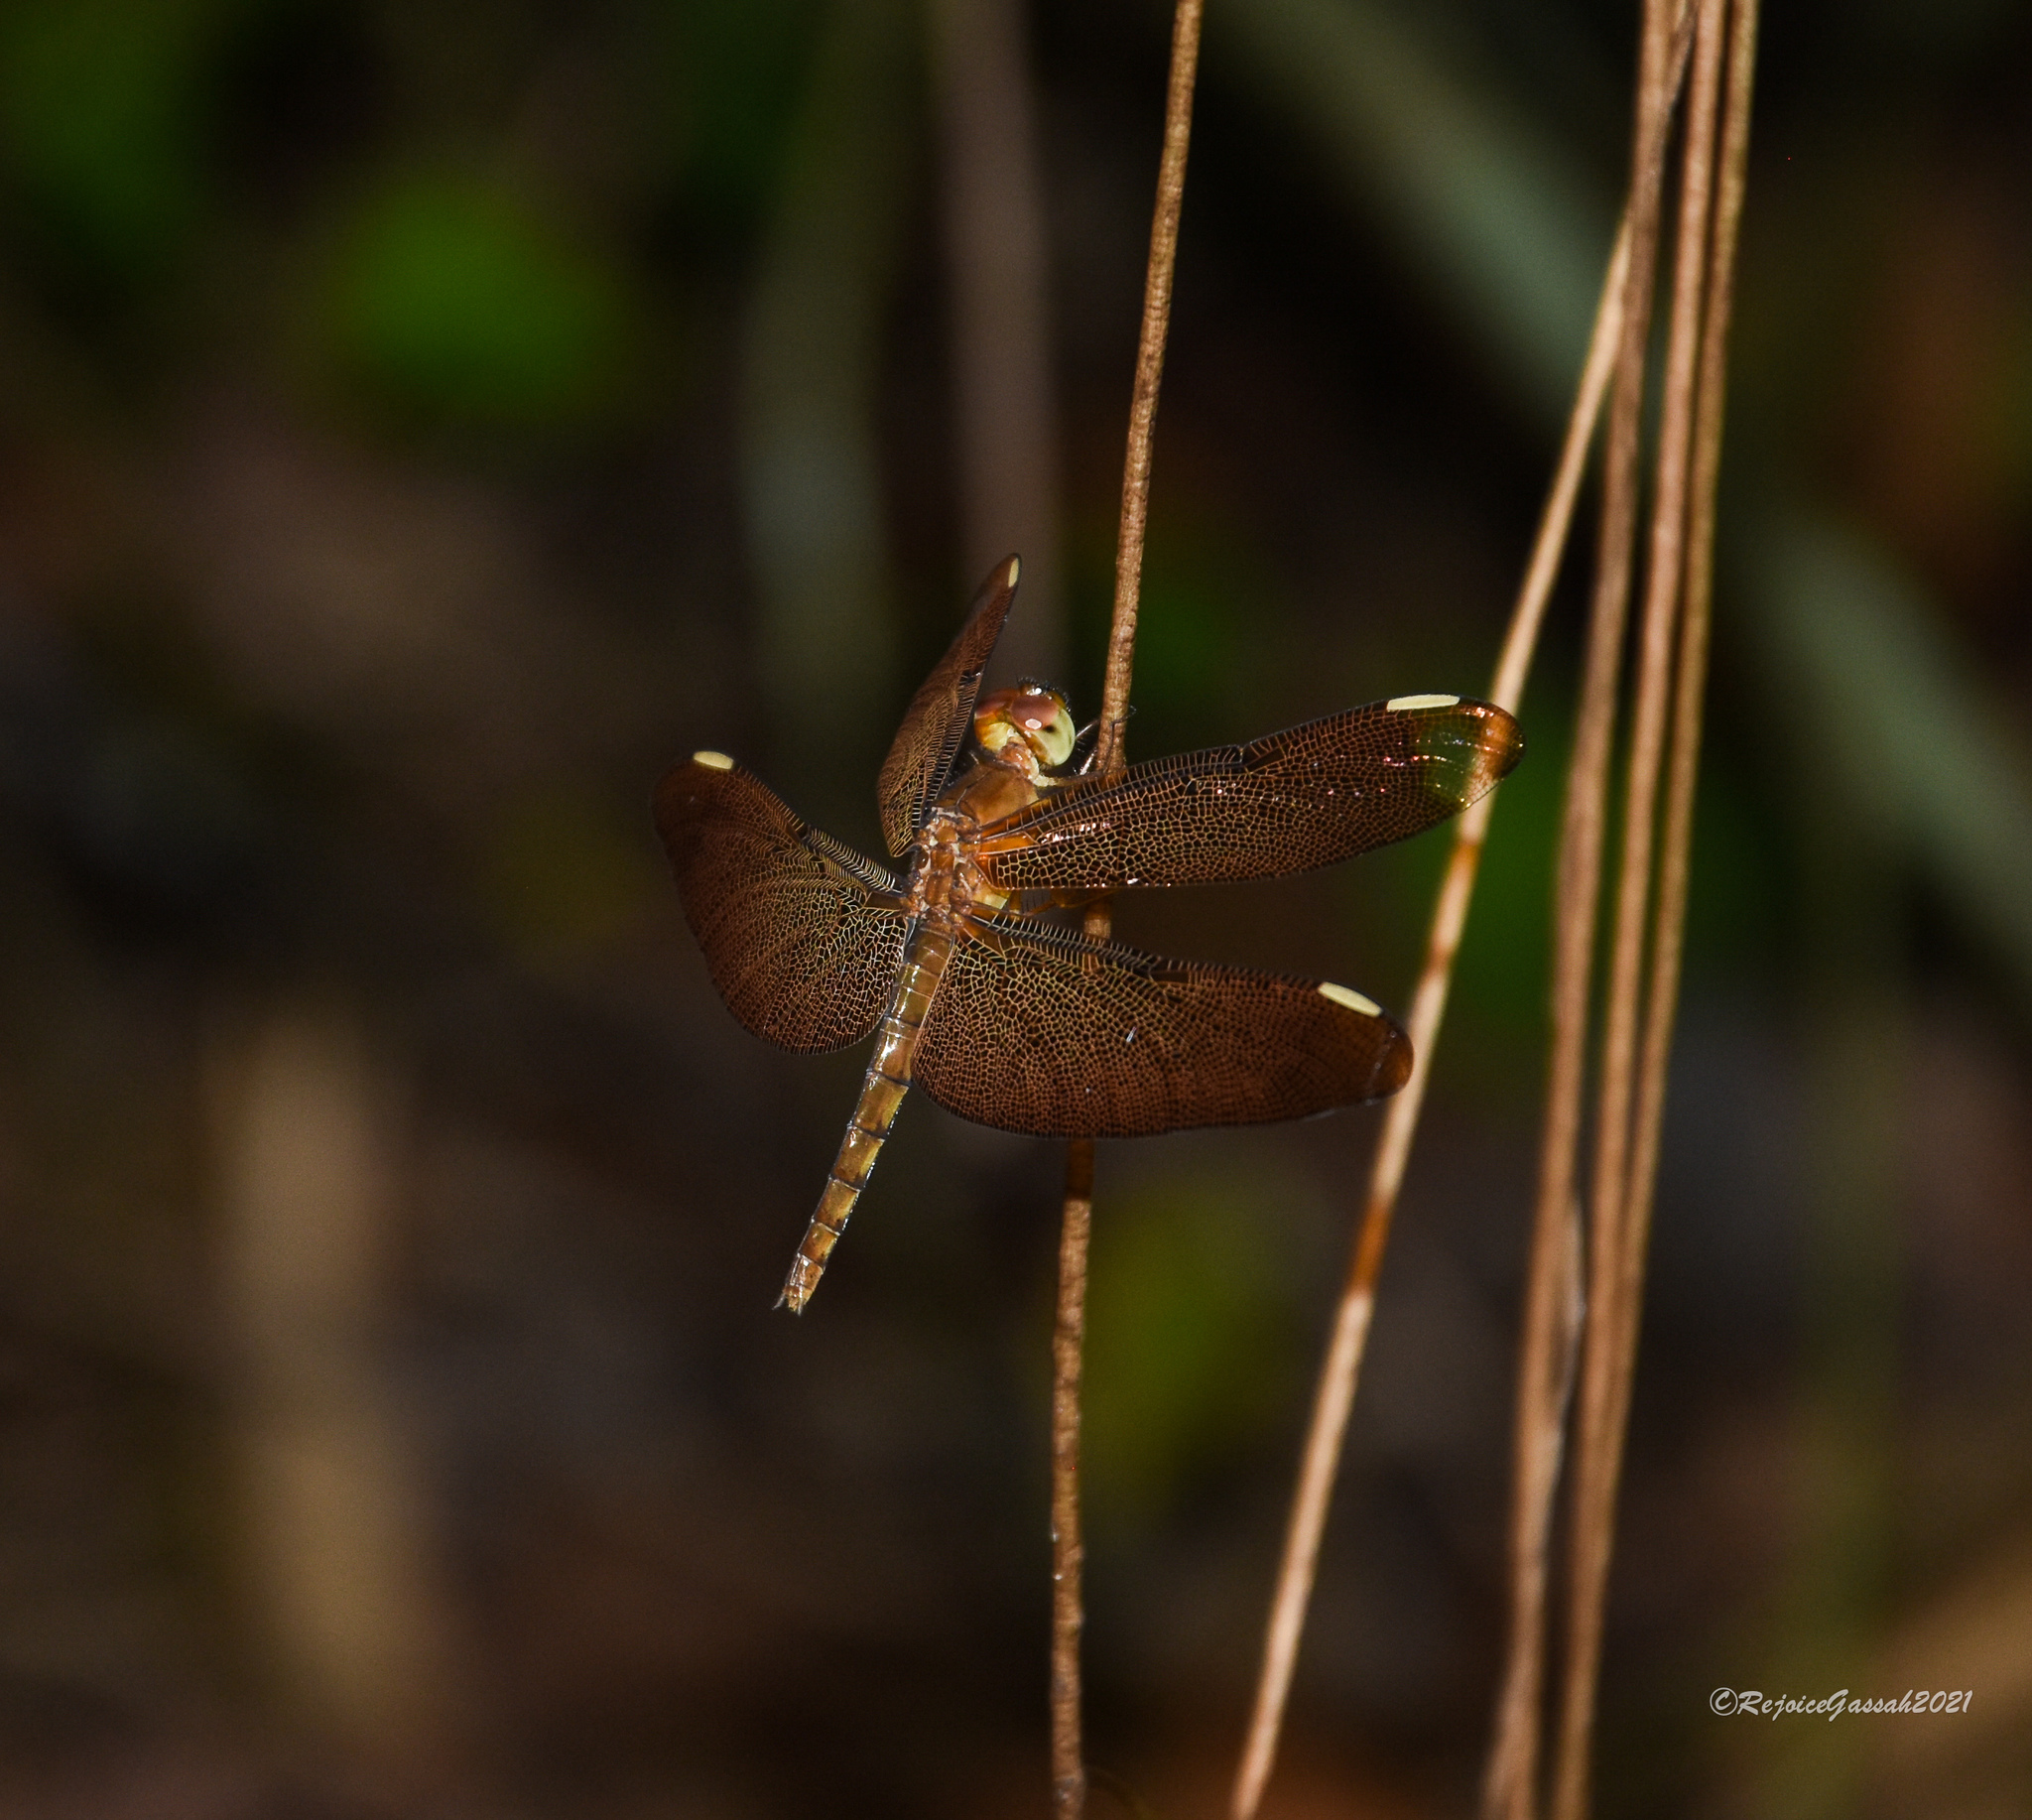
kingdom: Animalia
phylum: Arthropoda
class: Insecta
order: Odonata
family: Libellulidae
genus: Neurothemis
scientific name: Neurothemis fulvia
